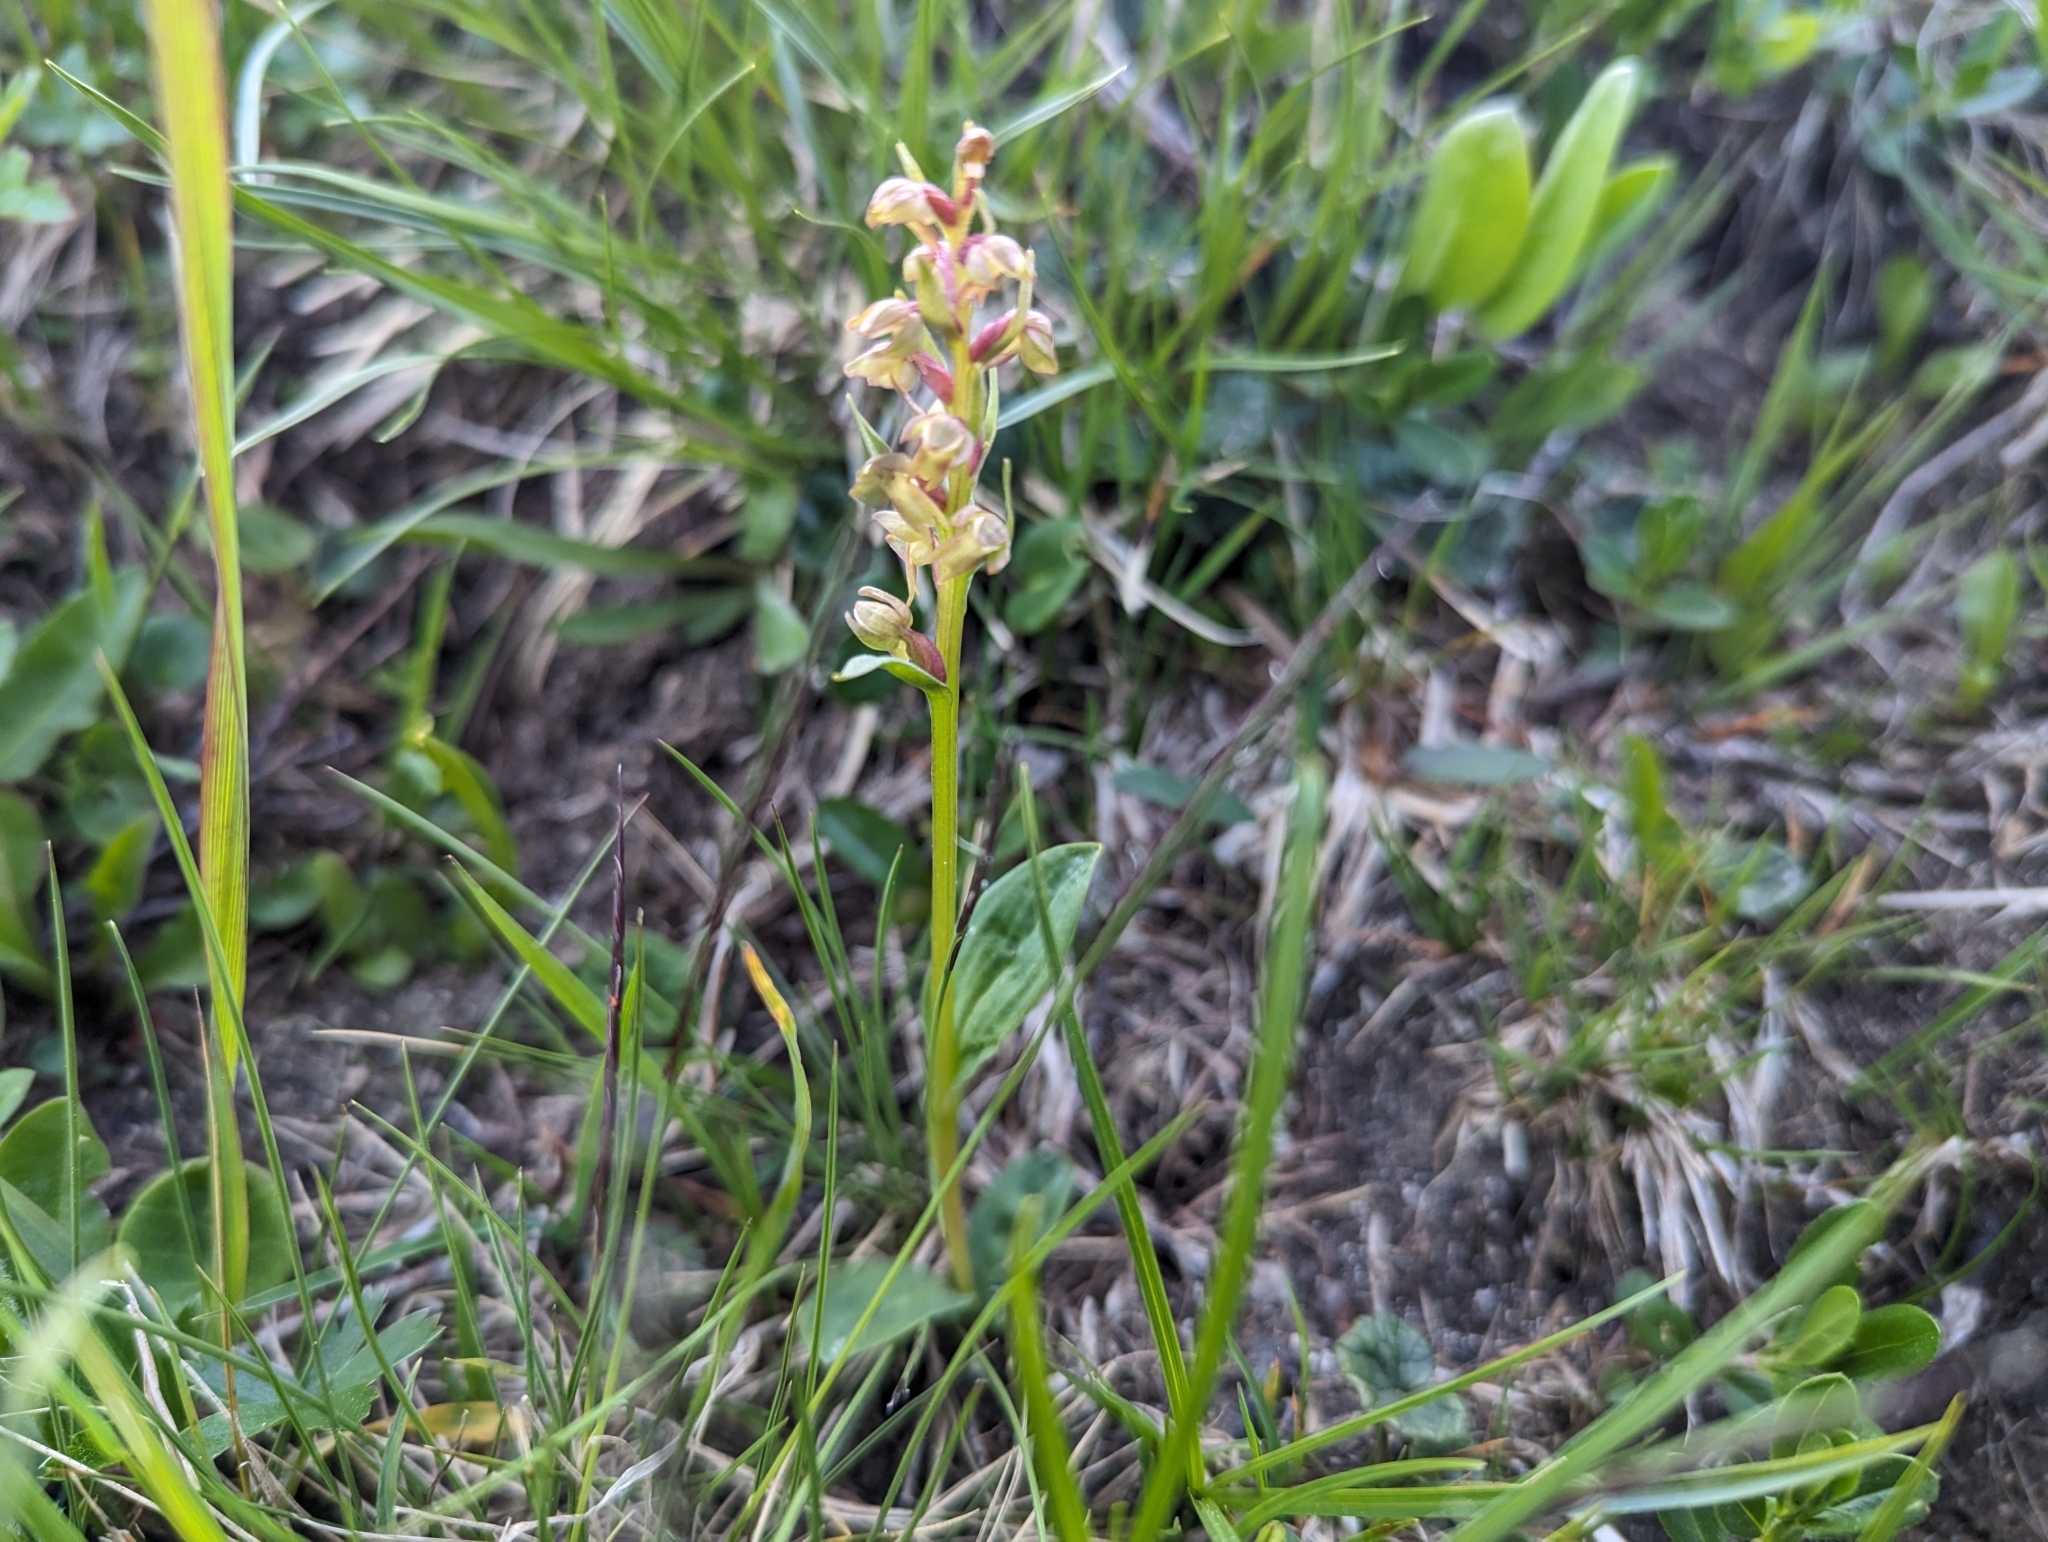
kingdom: Plantae
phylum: Tracheophyta
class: Liliopsida
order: Asparagales
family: Orchidaceae
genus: Dactylorhiza
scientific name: Dactylorhiza viridis
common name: Longbract frog orchid
